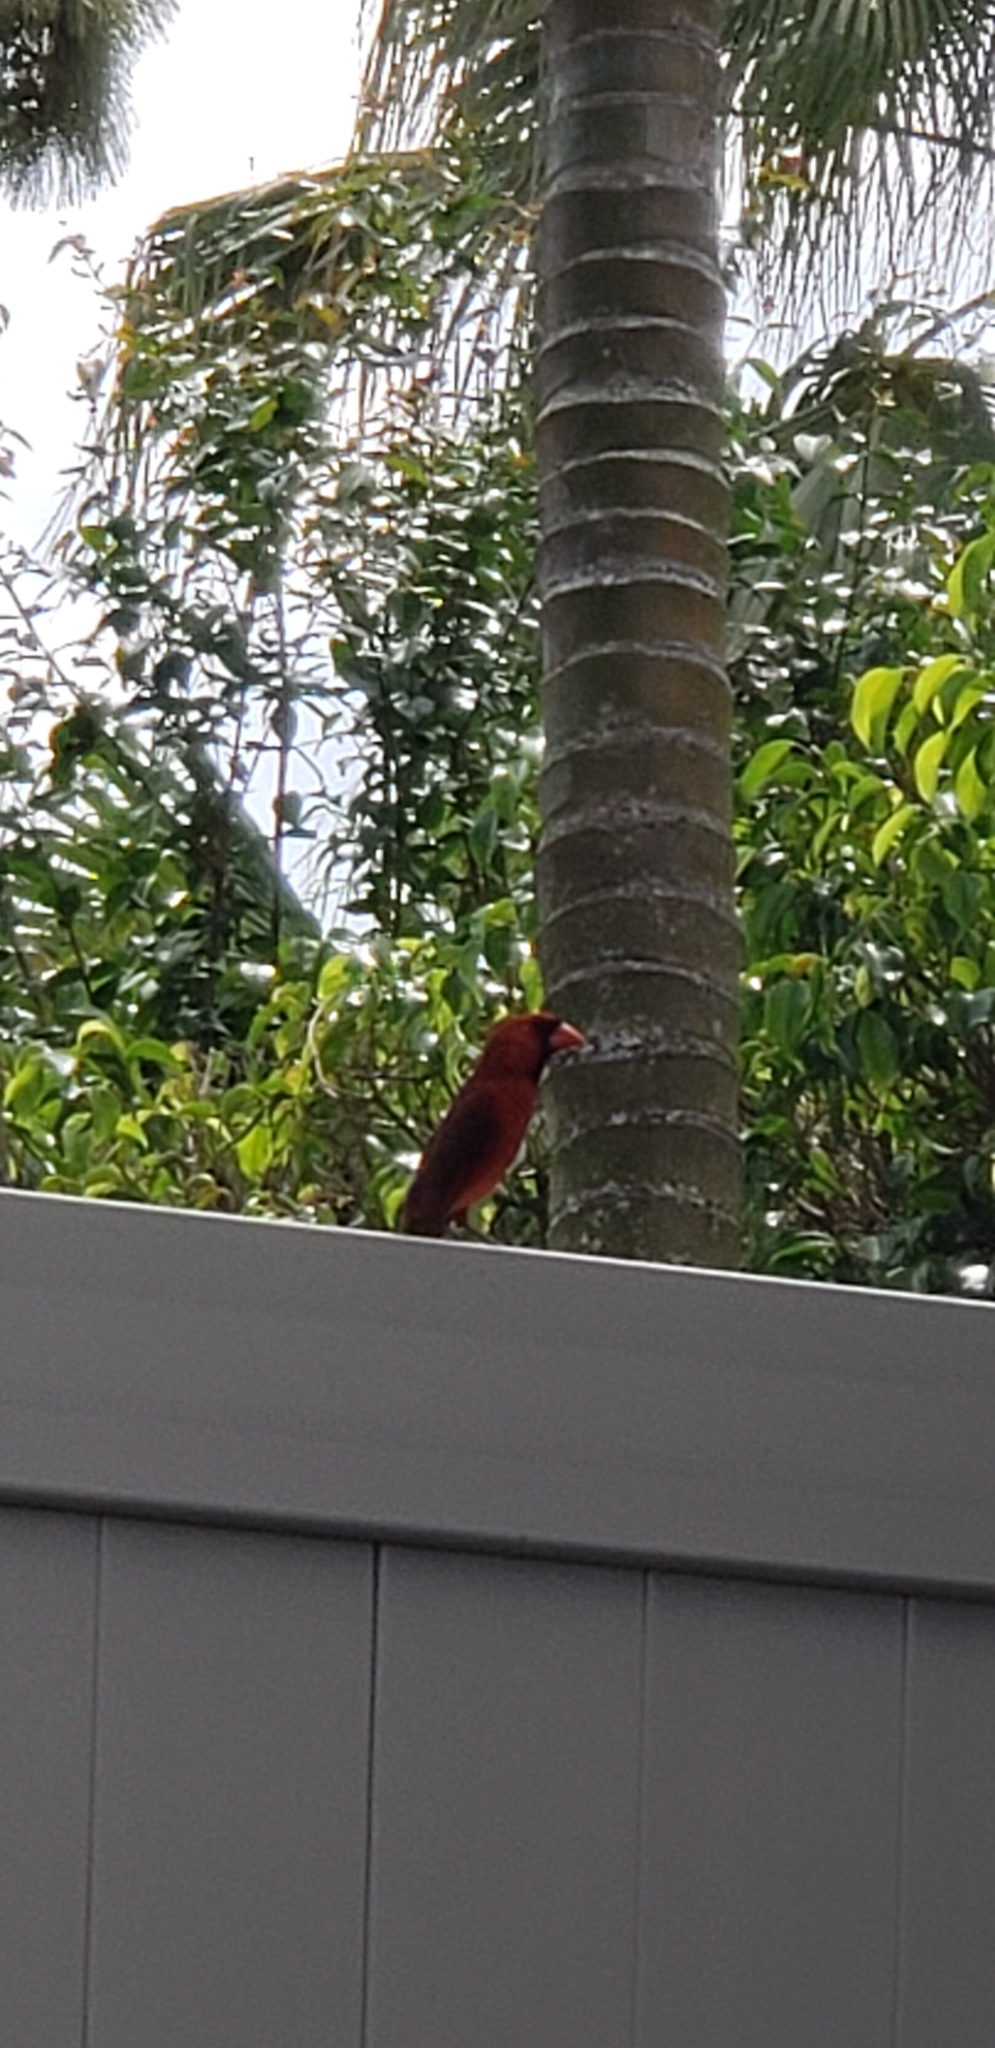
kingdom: Animalia
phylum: Chordata
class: Aves
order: Passeriformes
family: Cardinalidae
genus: Cardinalis
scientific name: Cardinalis cardinalis
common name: Northern cardinal
